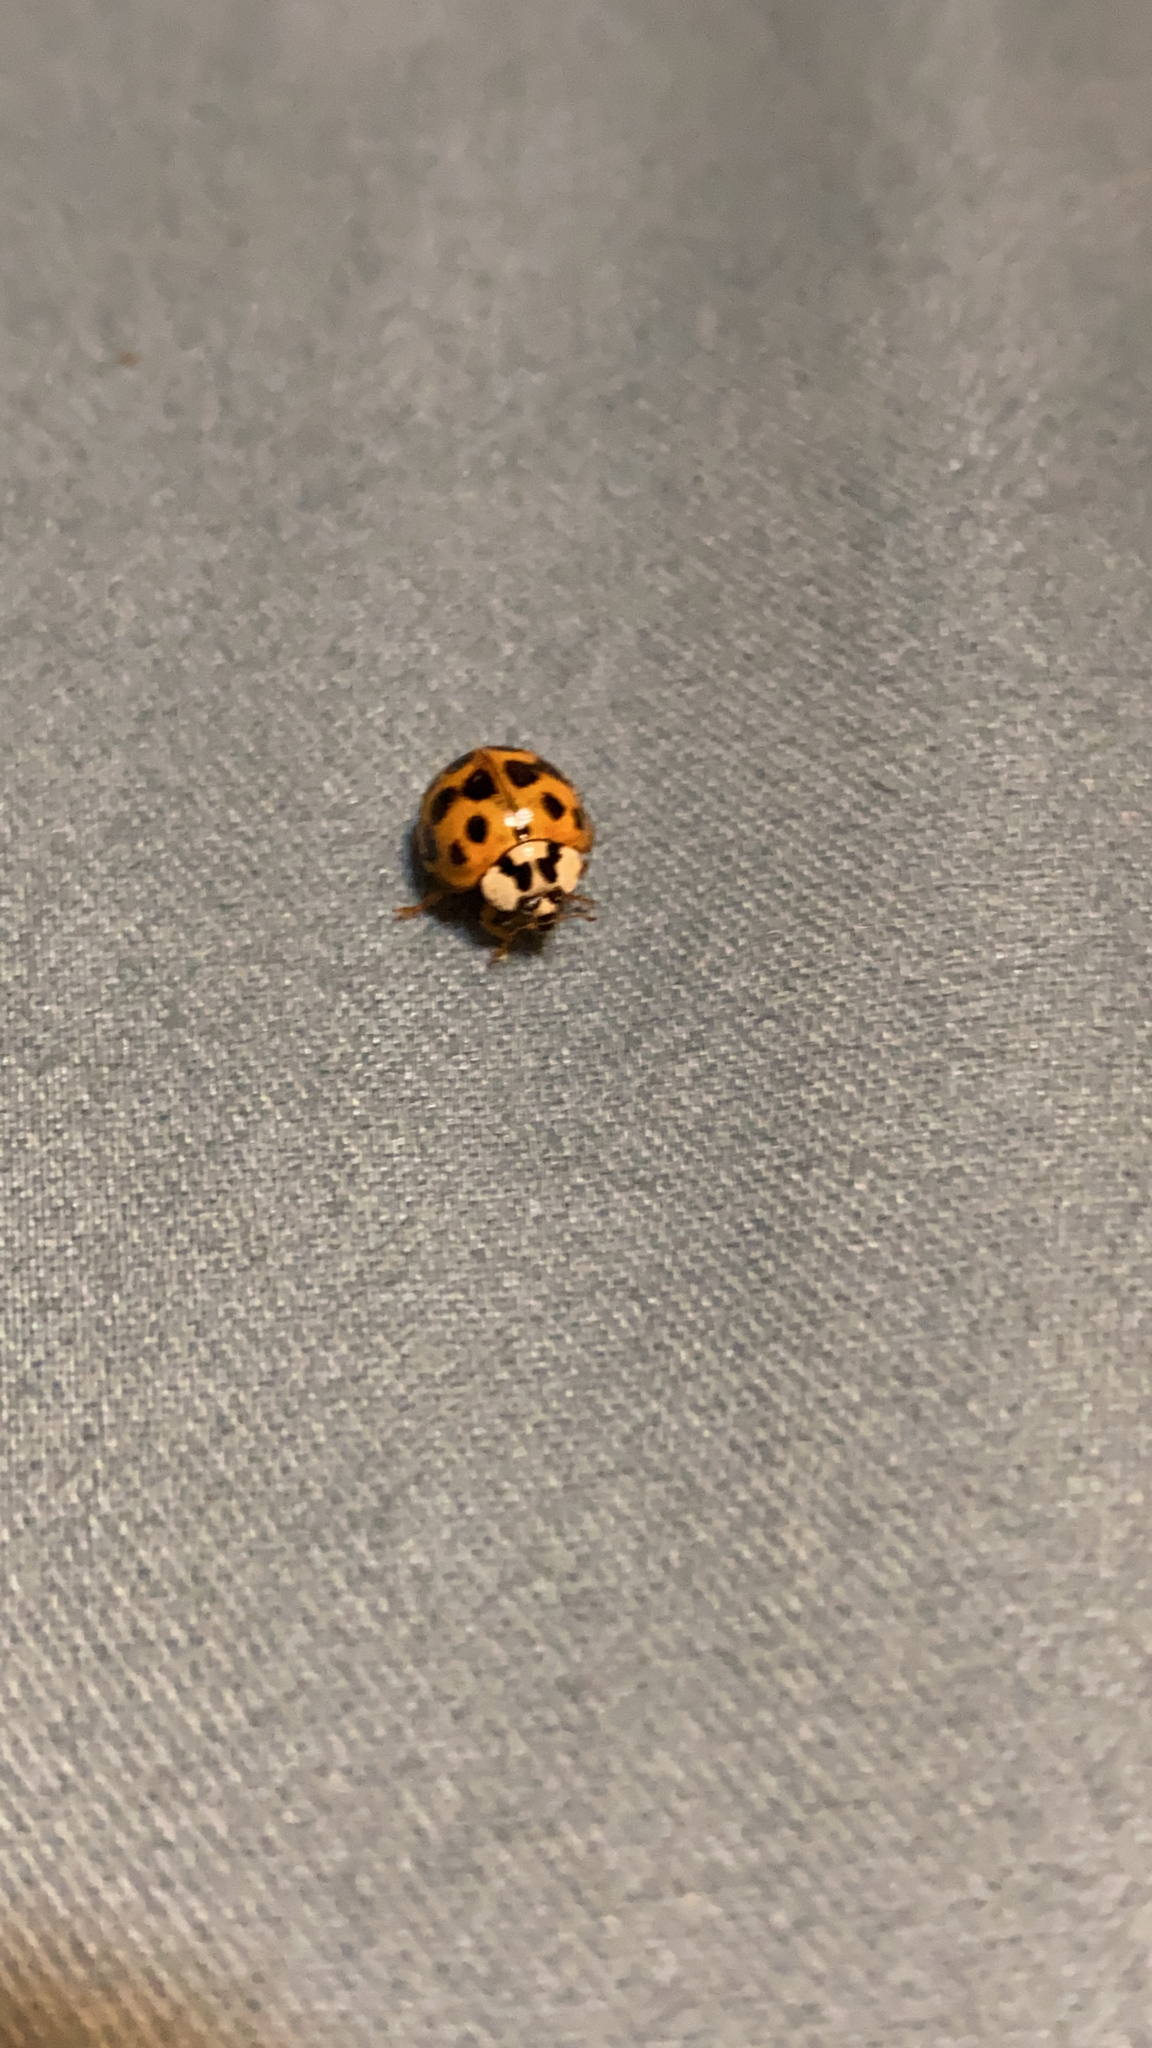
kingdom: Animalia
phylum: Arthropoda
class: Insecta
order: Coleoptera
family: Coccinellidae
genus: Harmonia
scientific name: Harmonia axyridis
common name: Harlequin ladybird
